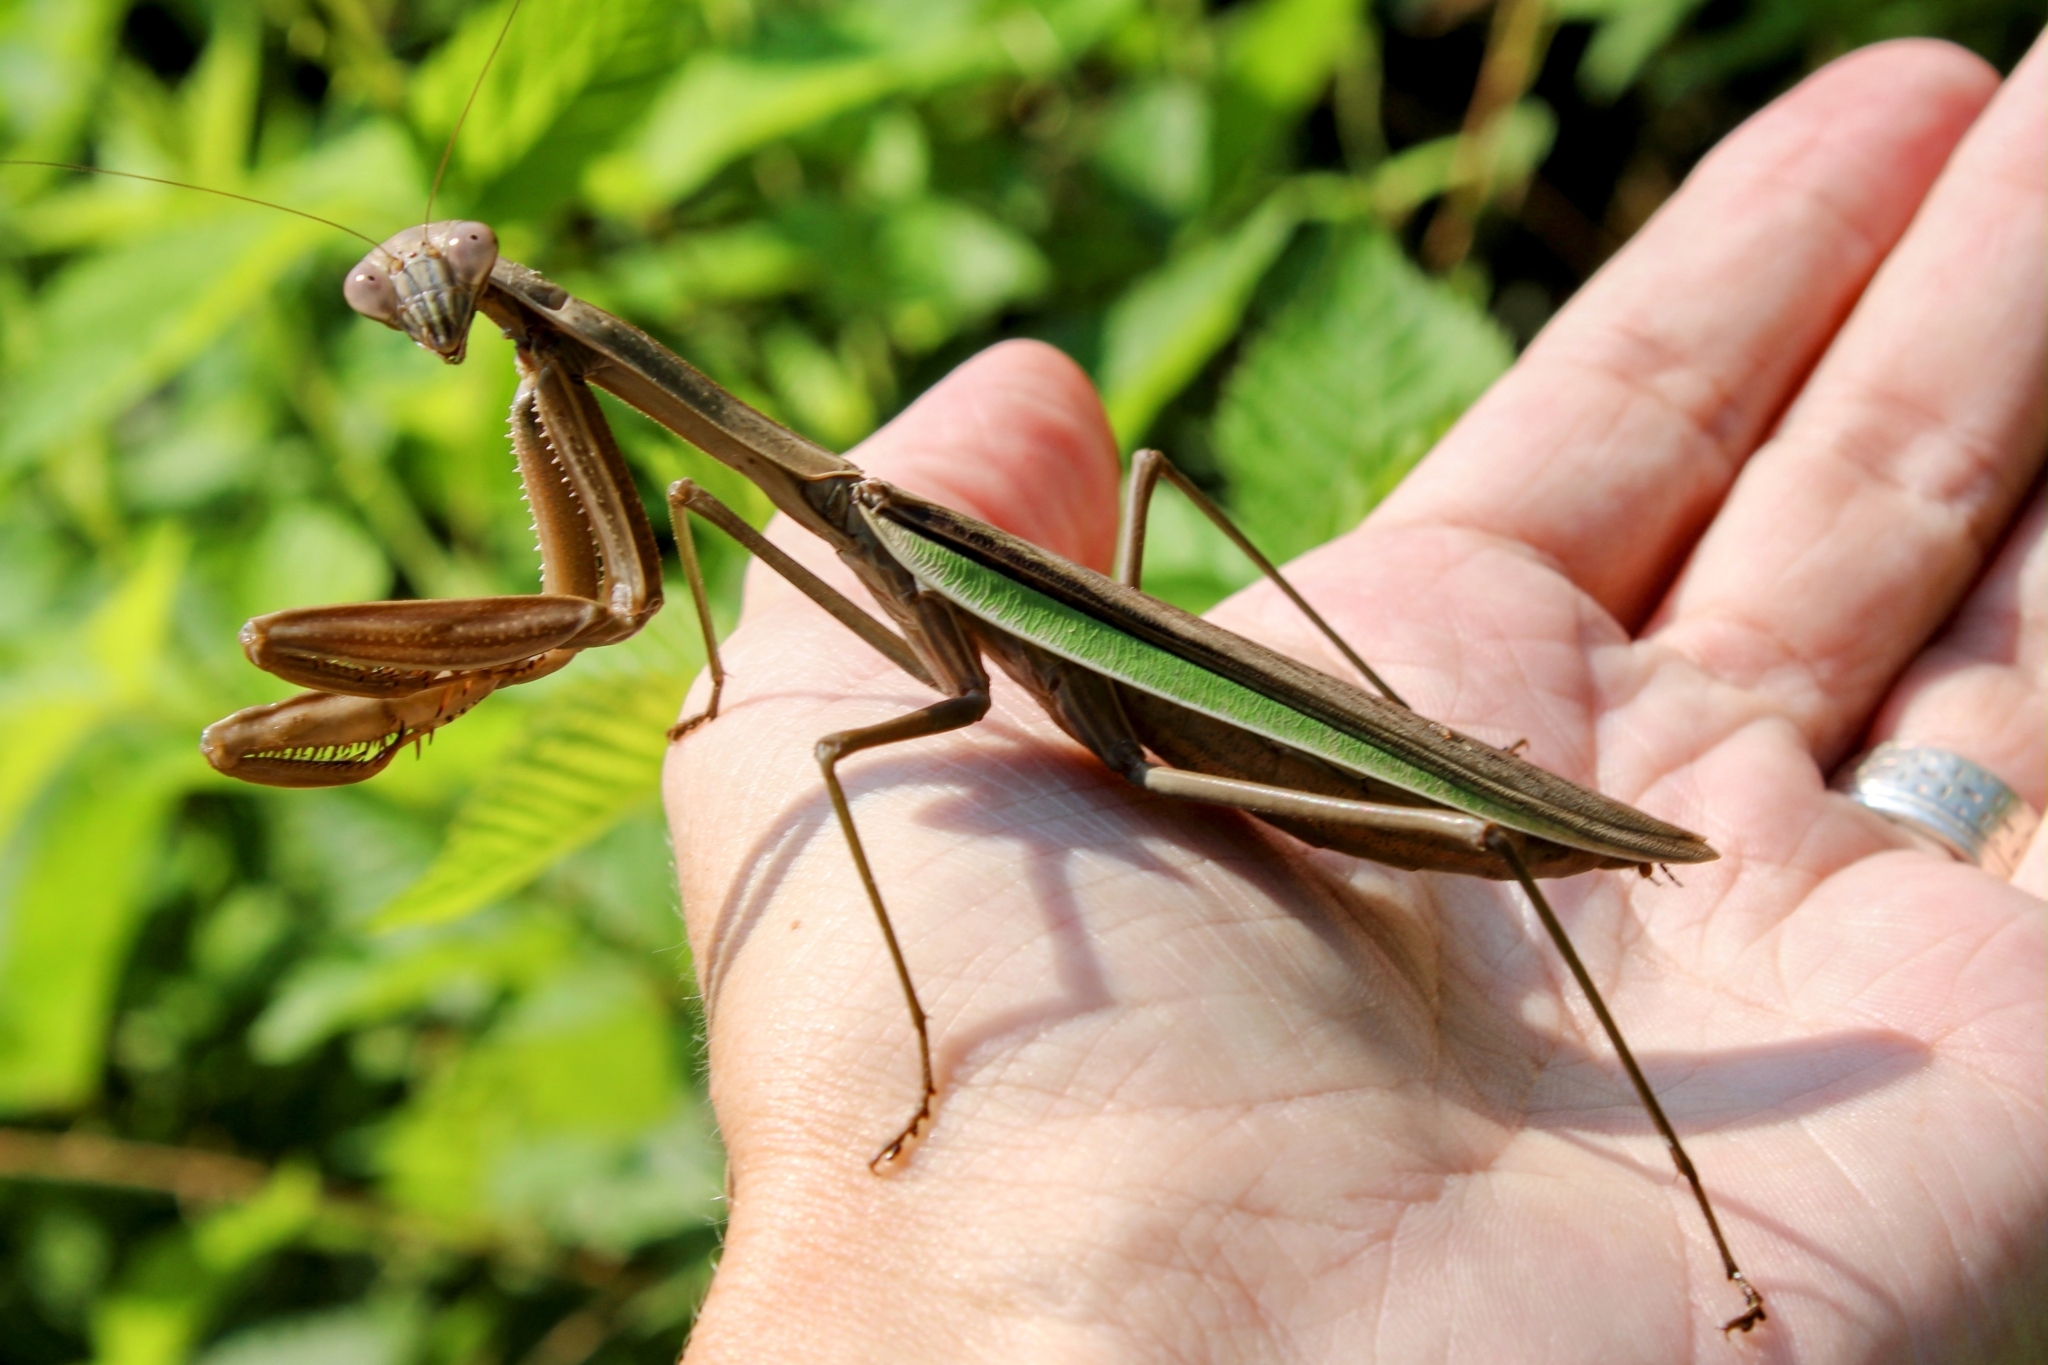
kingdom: Animalia
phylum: Arthropoda
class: Insecta
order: Mantodea
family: Mantidae
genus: Tenodera
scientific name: Tenodera sinensis
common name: Chinese mantis
